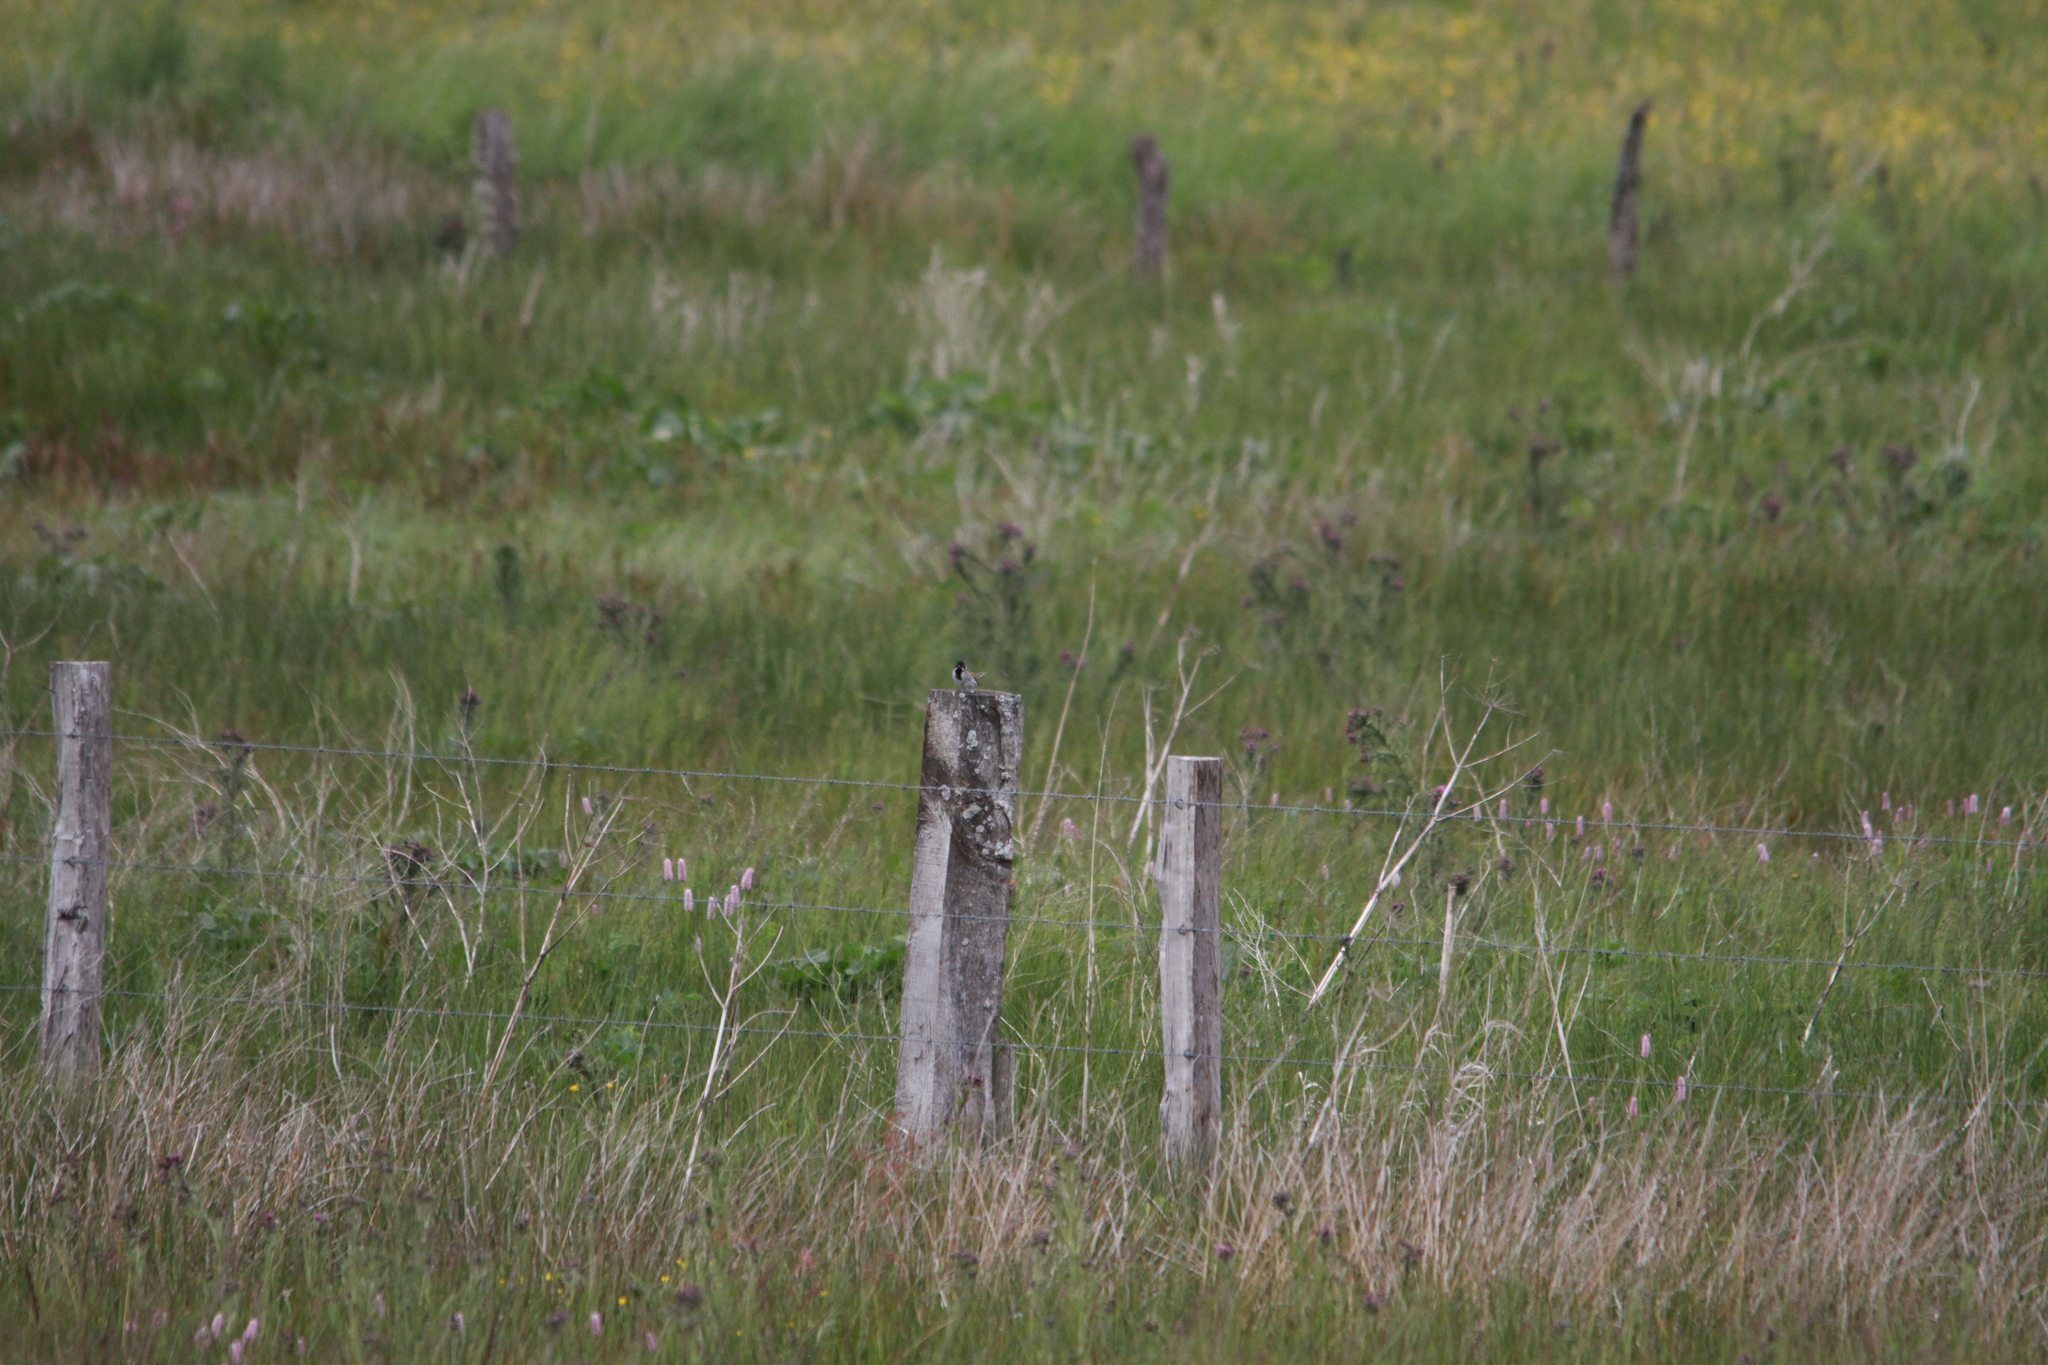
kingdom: Animalia
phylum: Chordata
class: Aves
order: Passeriformes
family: Emberizidae
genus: Emberiza
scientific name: Emberiza schoeniclus
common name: Reed bunting
